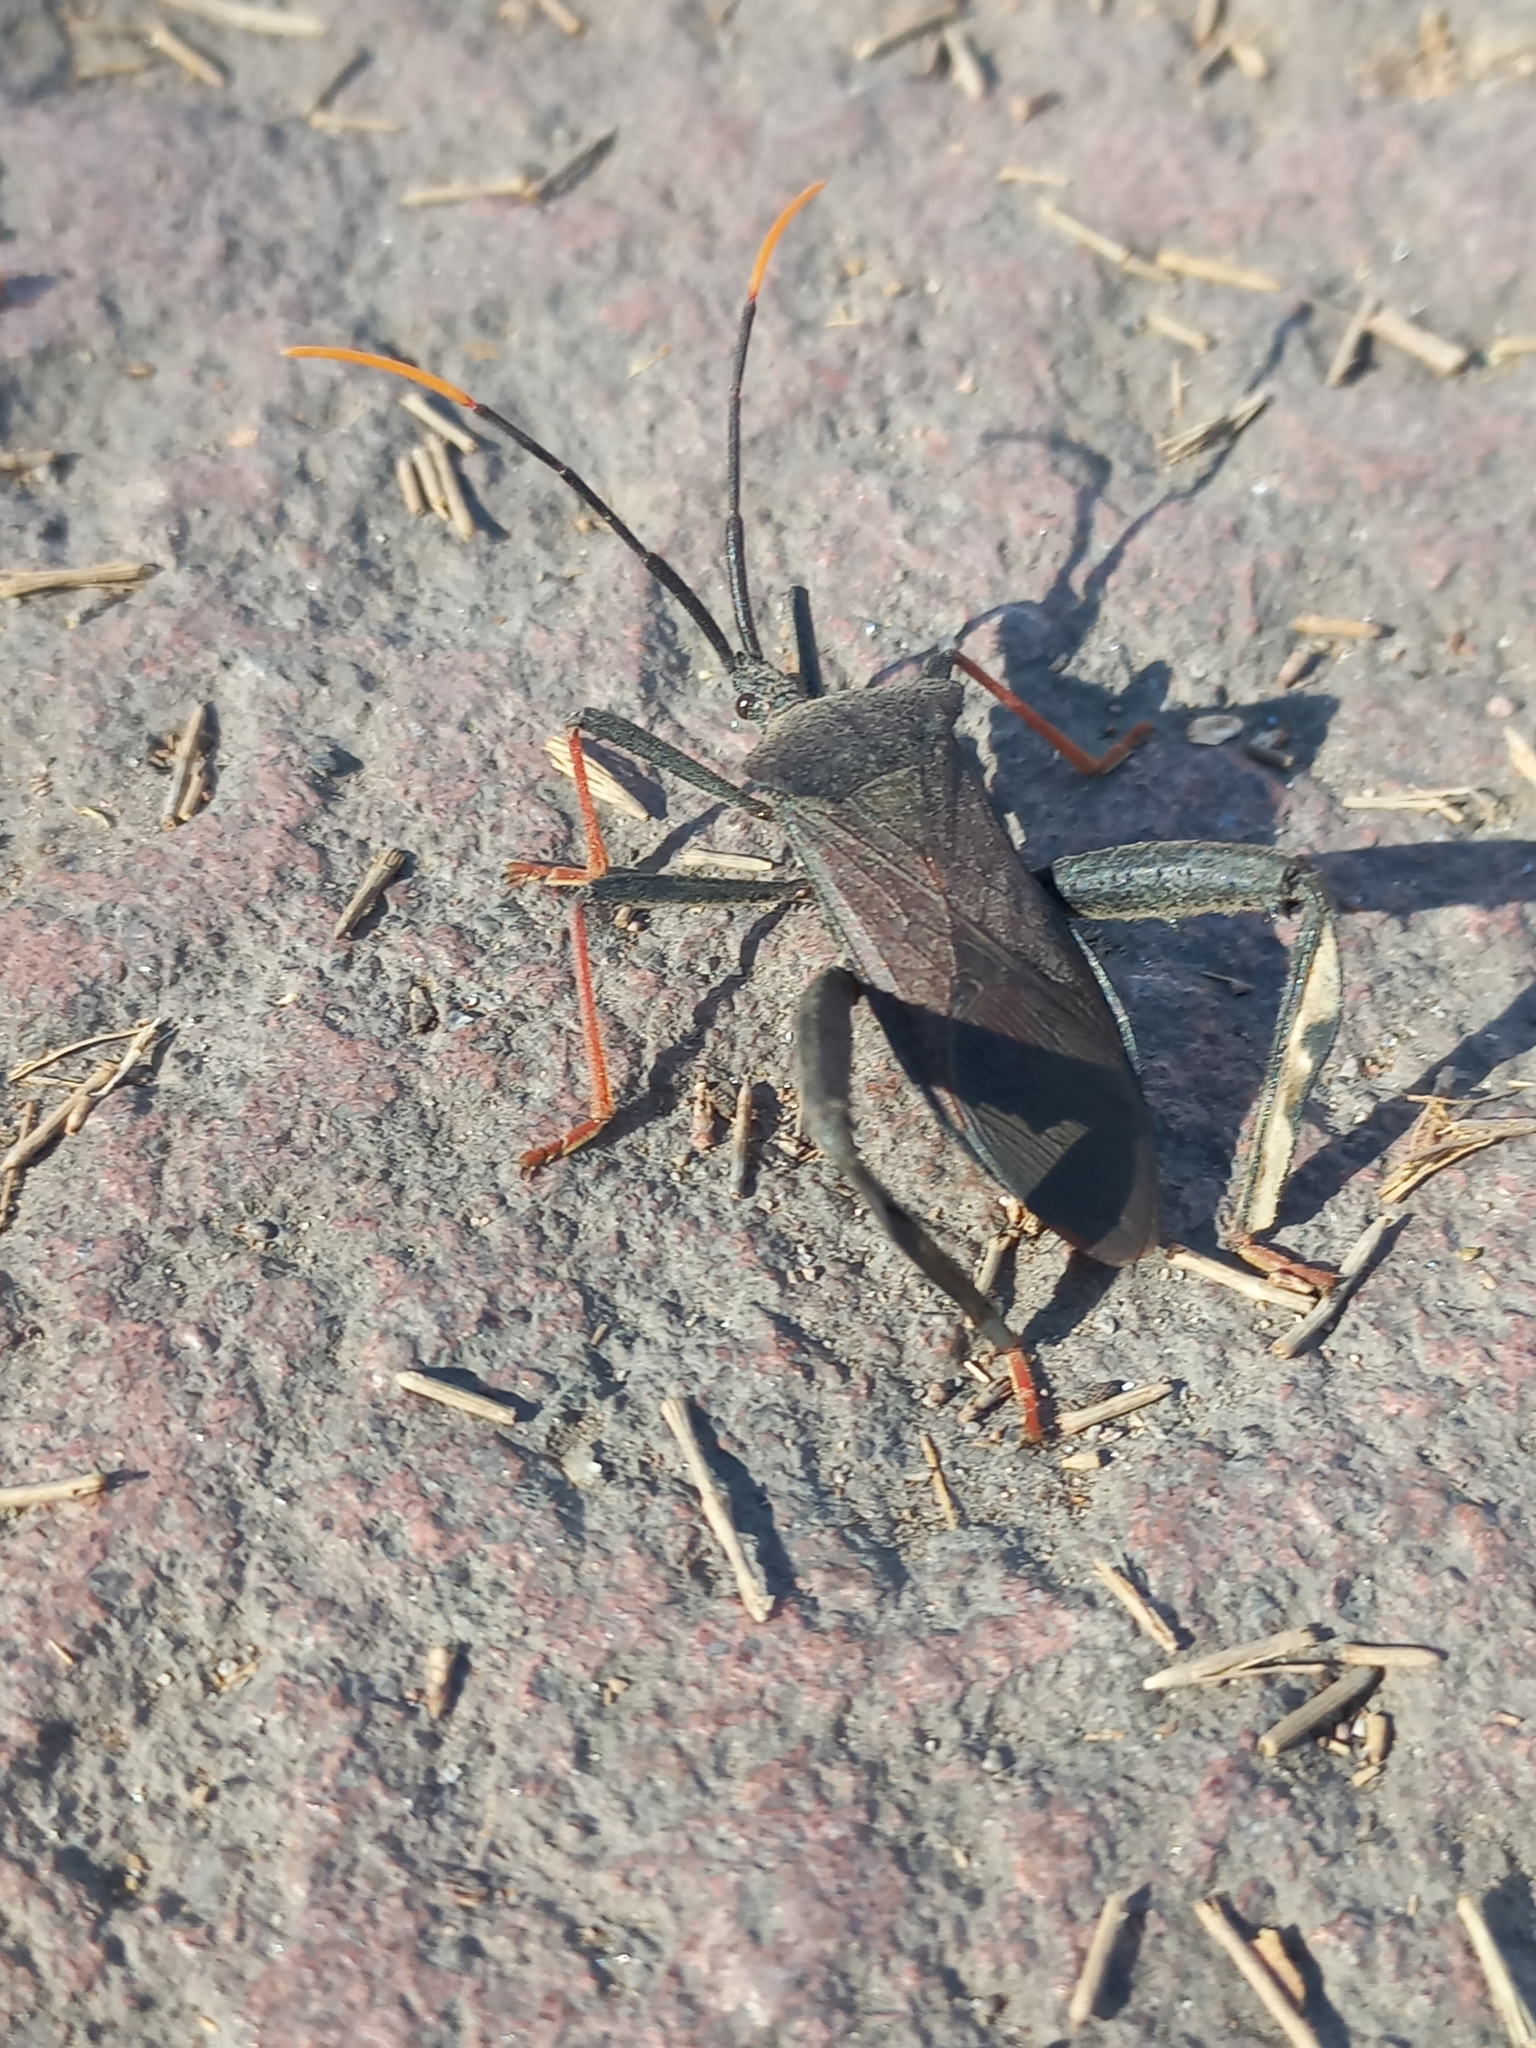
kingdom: Animalia
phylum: Arthropoda
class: Insecta
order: Hemiptera
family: Coreidae
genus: Acanthocephala
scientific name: Acanthocephala thomasi
